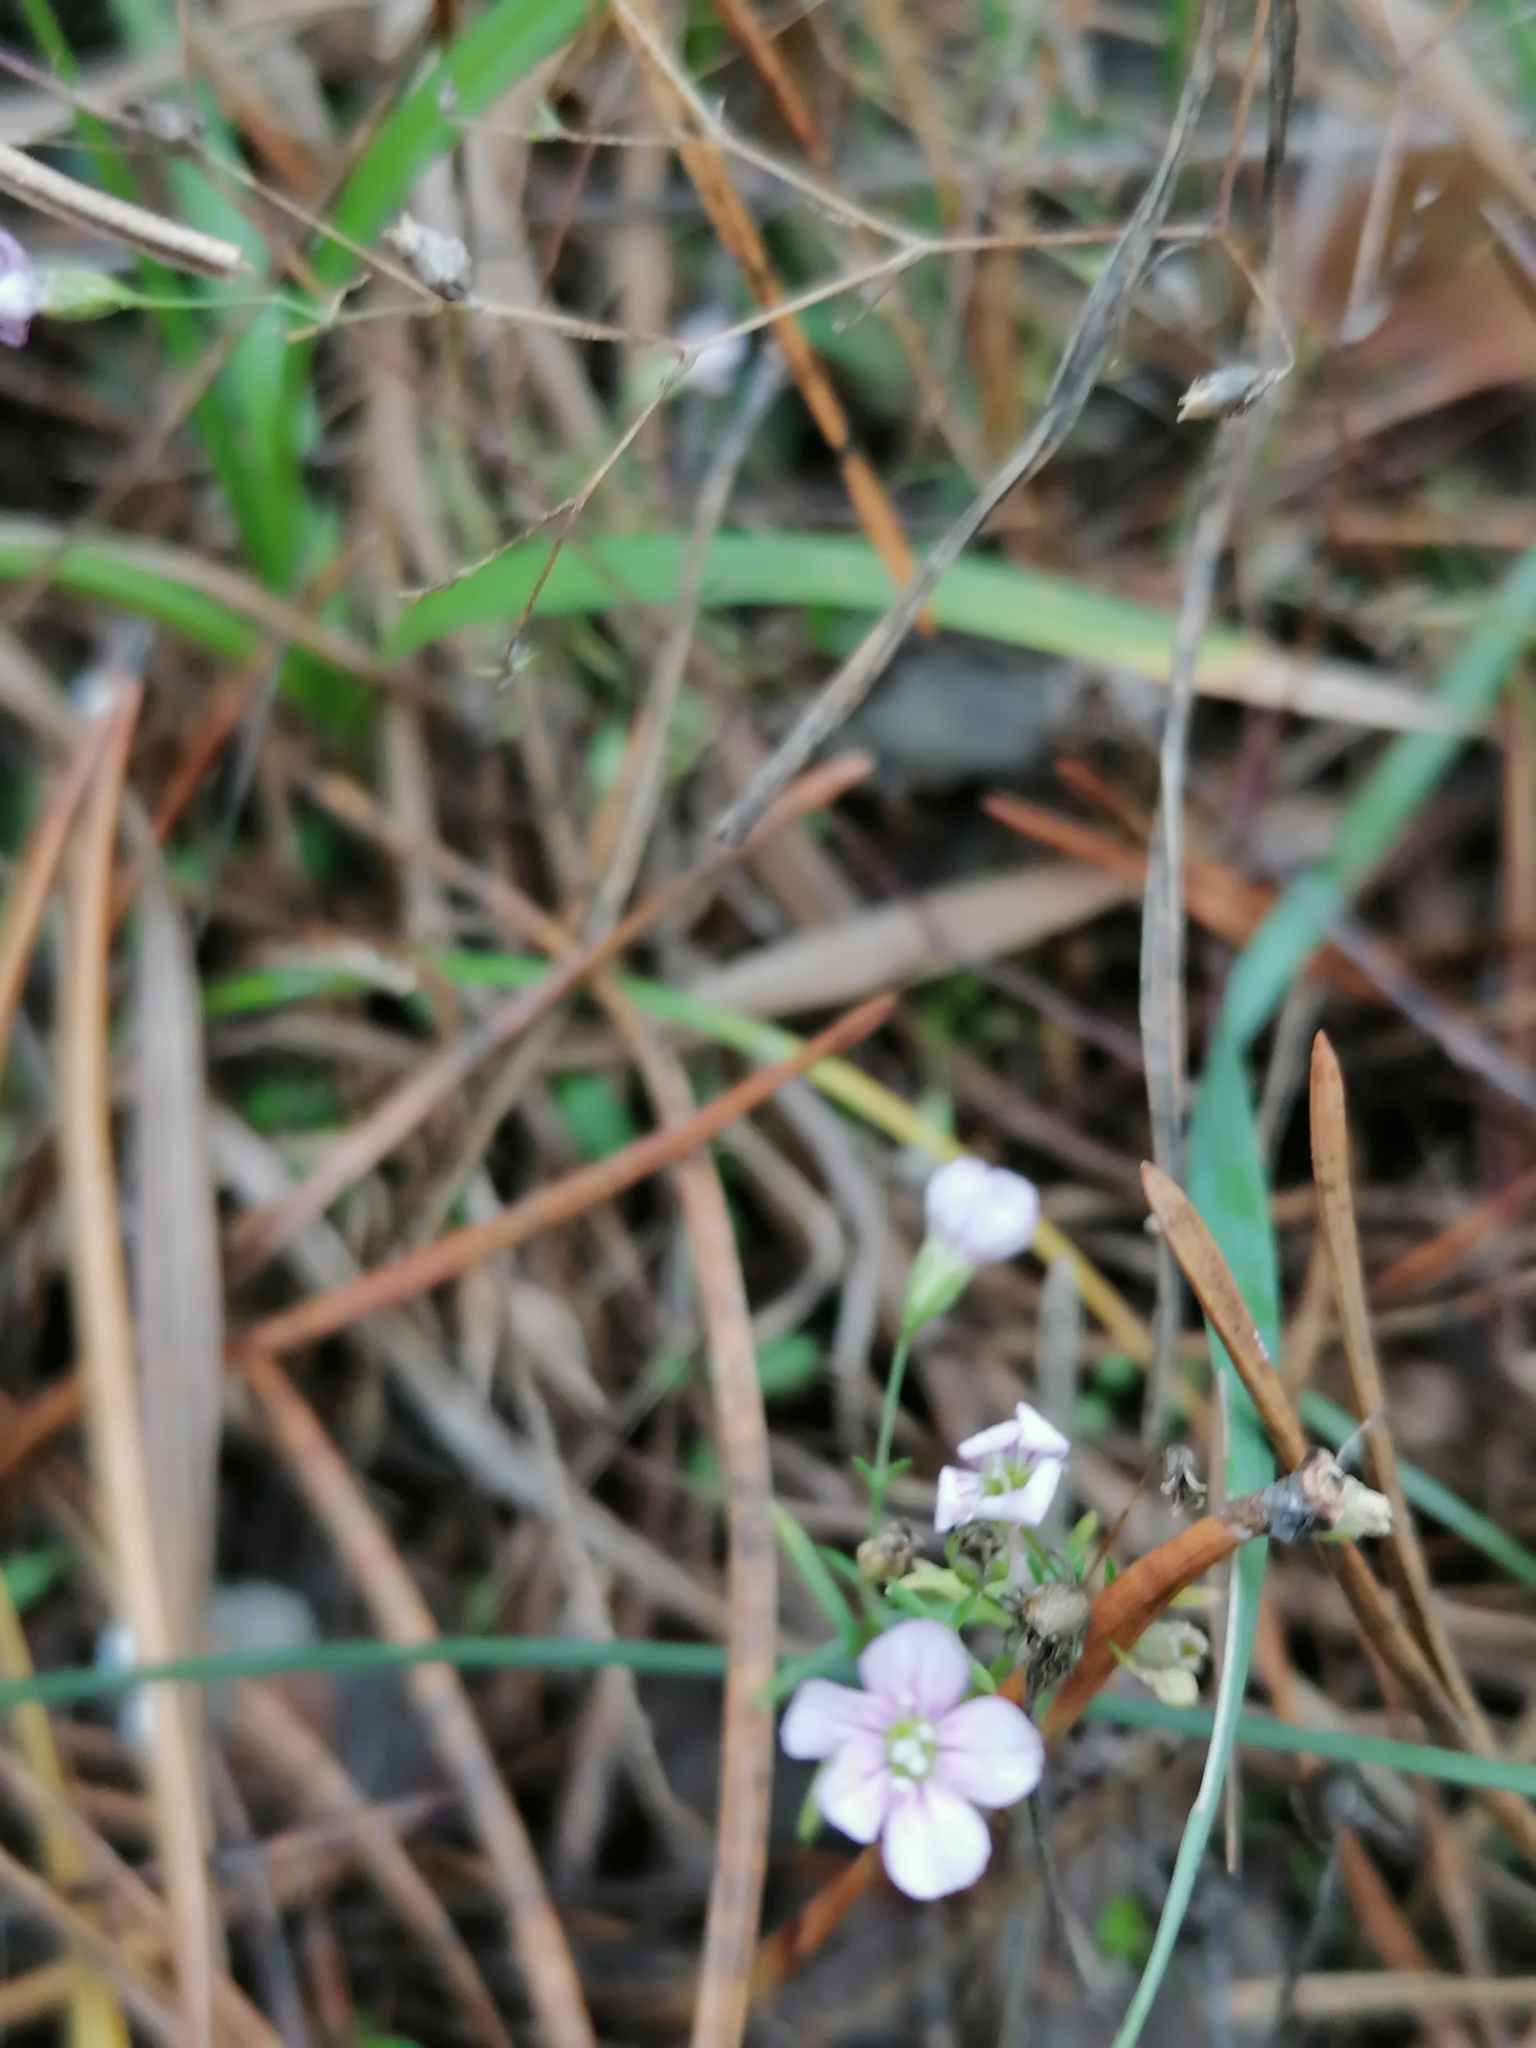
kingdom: Plantae
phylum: Tracheophyta
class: Magnoliopsida
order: Caryophyllales
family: Caryophyllaceae
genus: Psammophiliella
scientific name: Psammophiliella muralis
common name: Cushion baby's-breath
